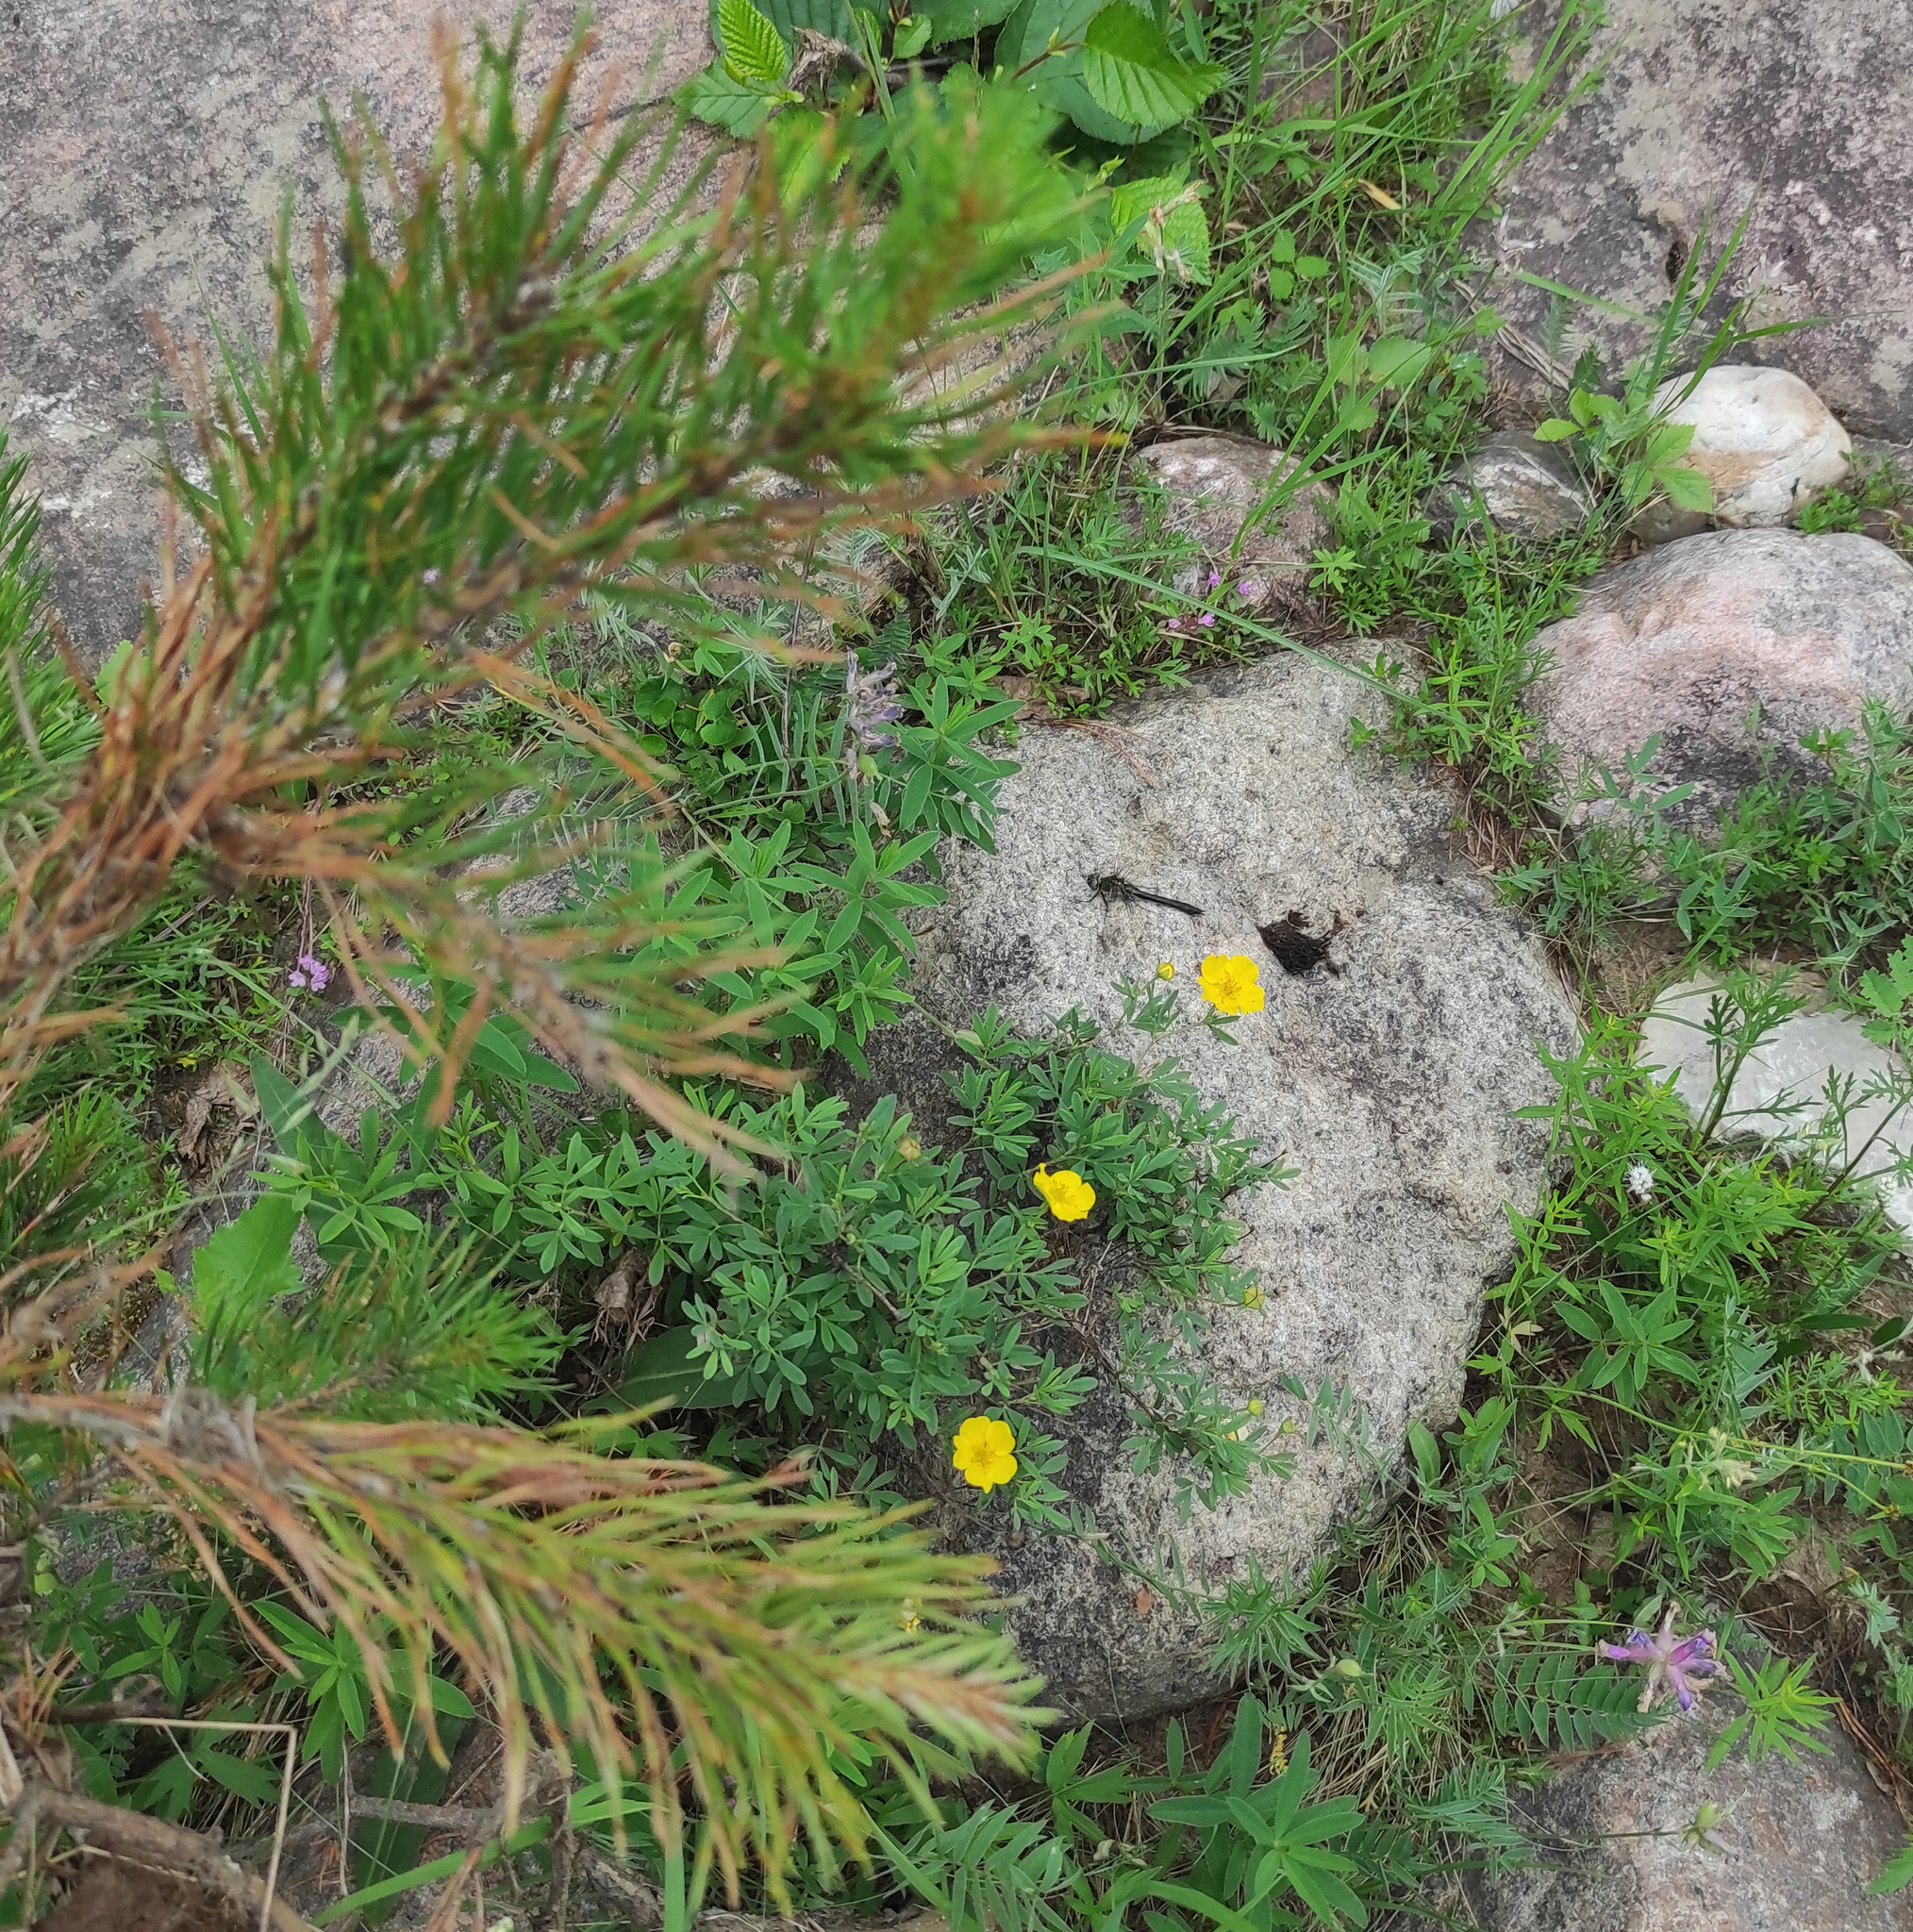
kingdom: Animalia
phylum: Arthropoda
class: Insecta
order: Odonata
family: Corduliidae
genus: Cordulia
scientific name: Cordulia aenea
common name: Downy emerald
